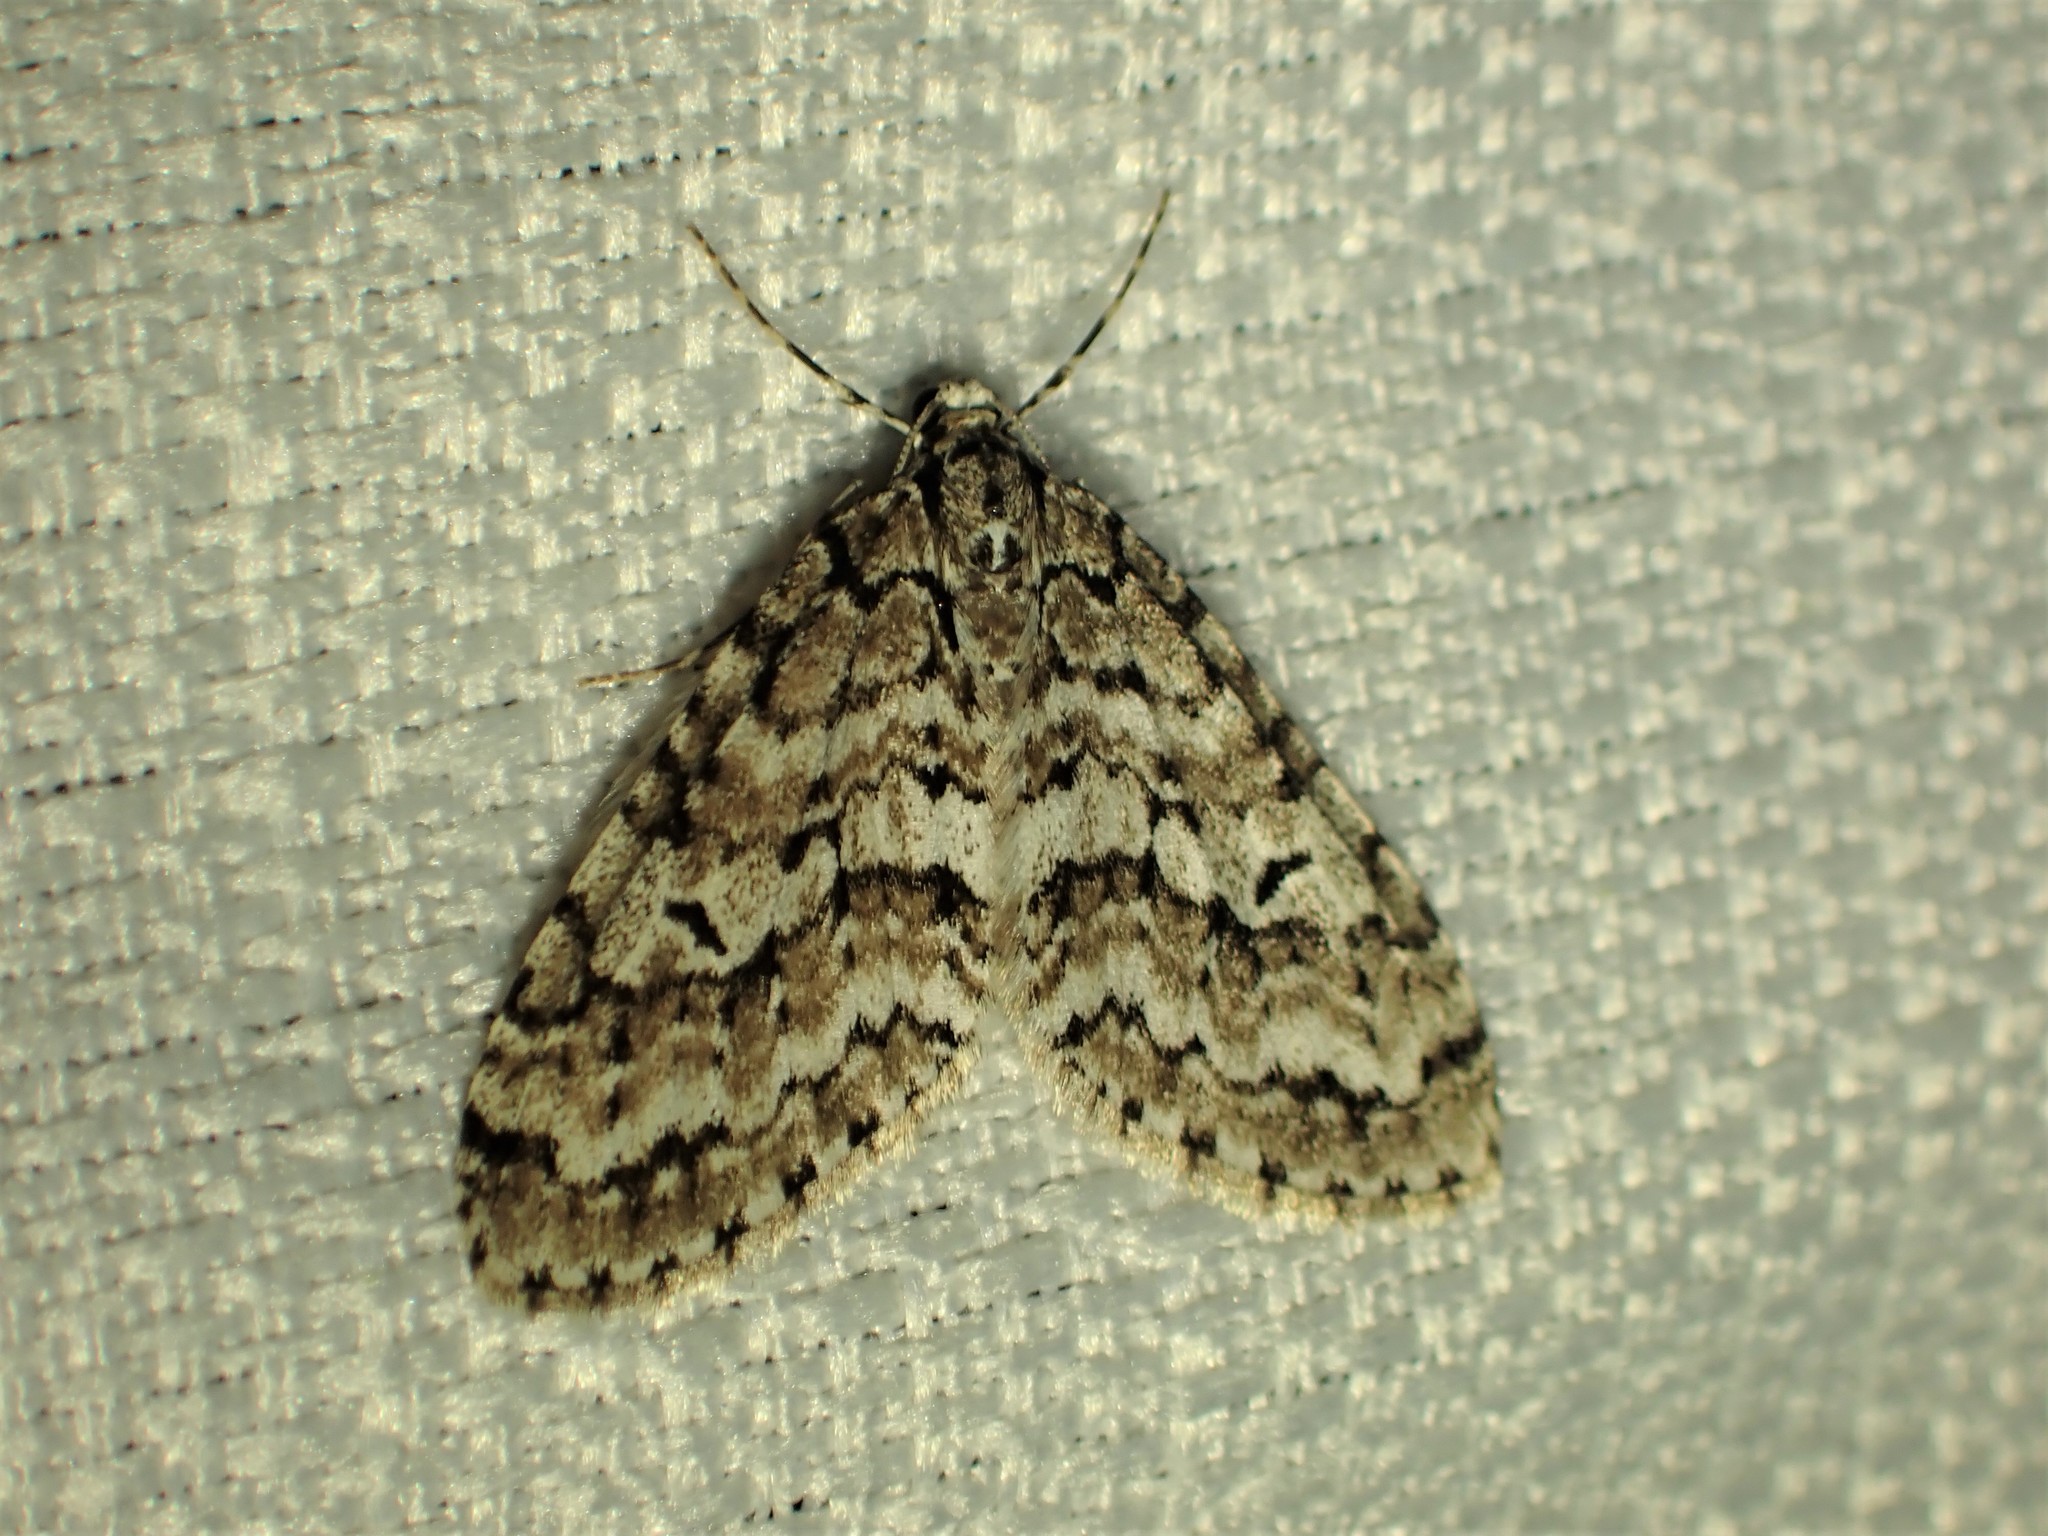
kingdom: Animalia
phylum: Arthropoda
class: Insecta
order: Lepidoptera
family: Geometridae
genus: Cladara
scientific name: Cladara atroliturata
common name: Scribbler
